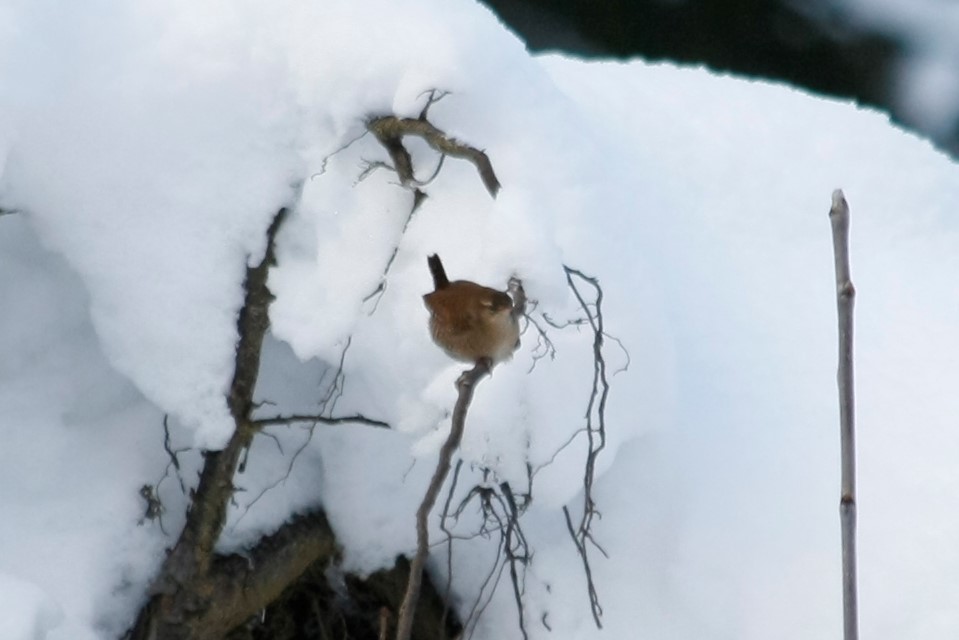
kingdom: Animalia
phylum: Chordata
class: Aves
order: Passeriformes
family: Troglodytidae
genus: Troglodytes
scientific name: Troglodytes troglodytes
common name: Eurasian wren
